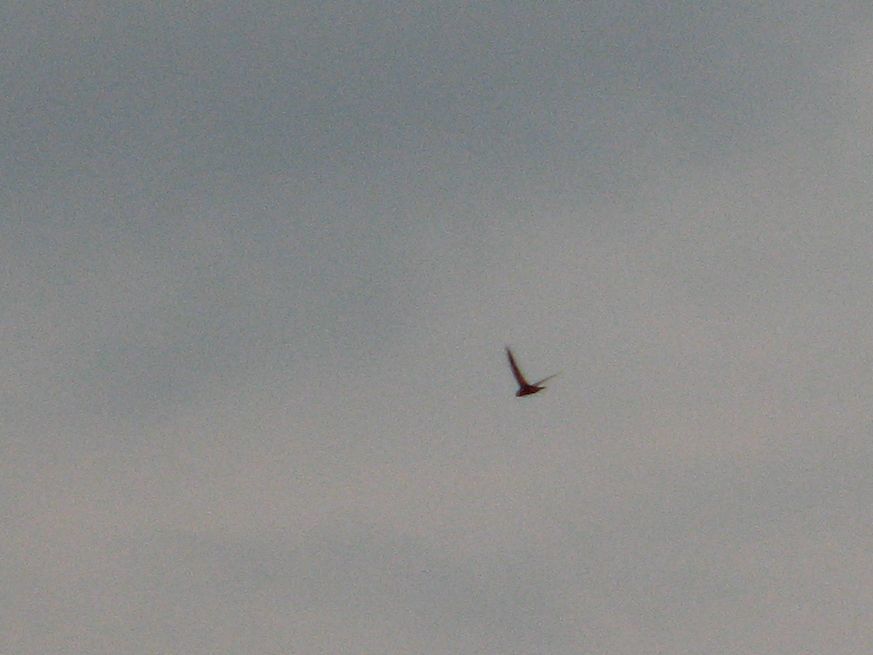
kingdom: Animalia
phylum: Chordata
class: Aves
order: Apodiformes
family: Apodidae
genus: Apus
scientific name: Apus apus
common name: Common swift
